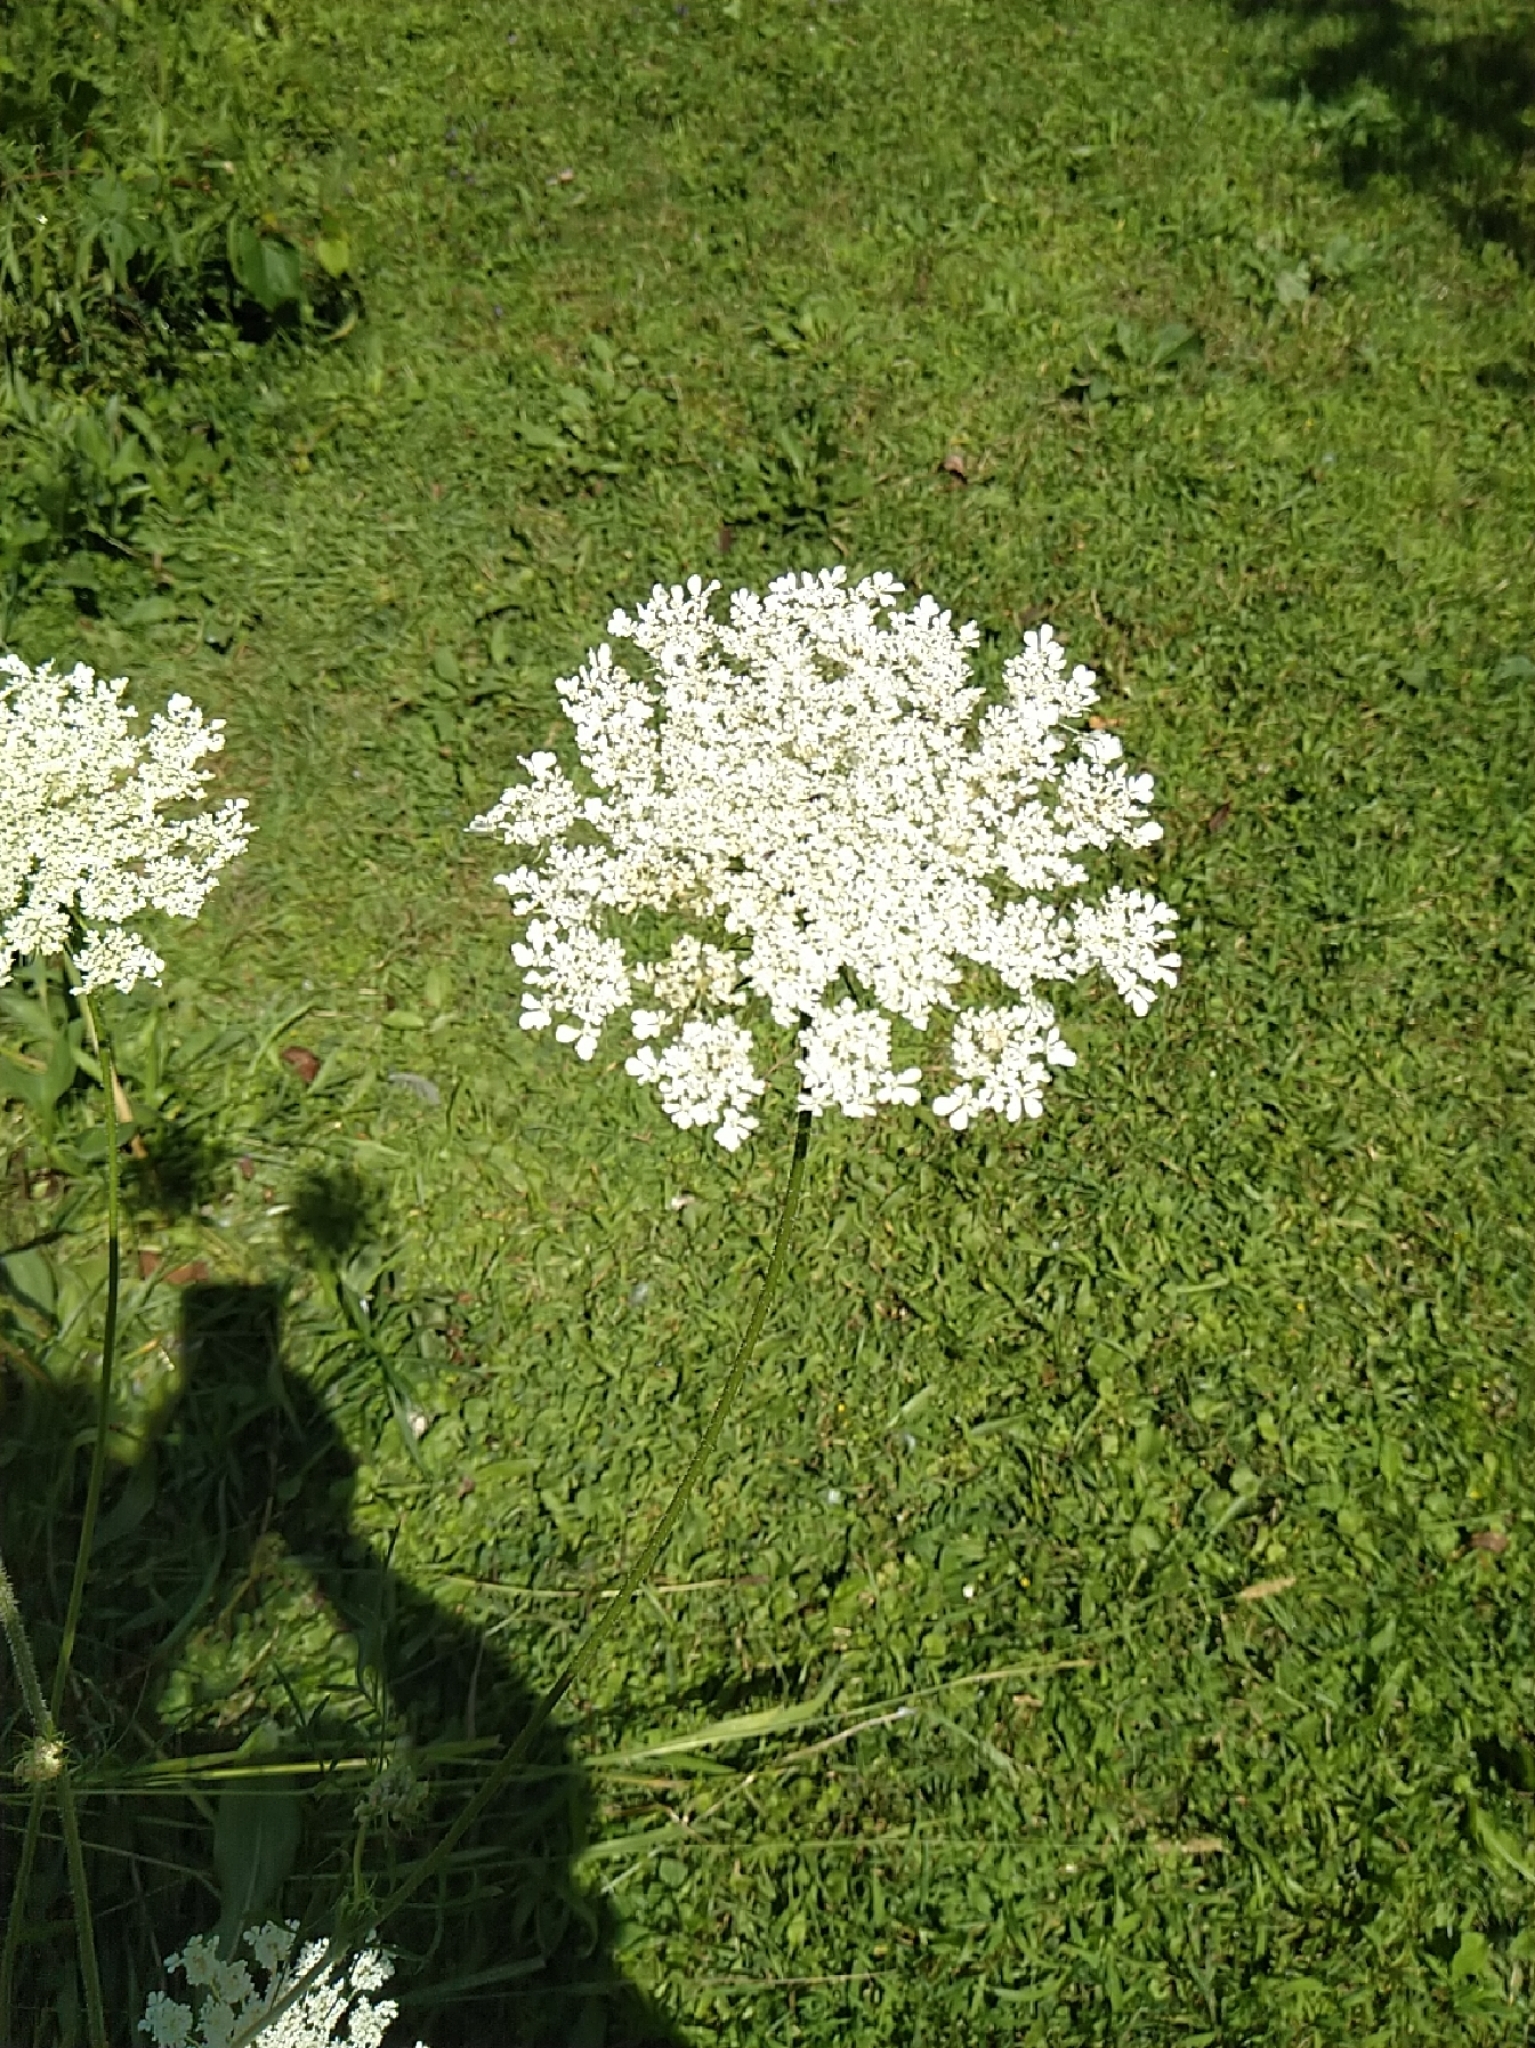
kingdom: Plantae
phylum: Tracheophyta
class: Magnoliopsida
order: Apiales
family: Apiaceae
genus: Daucus
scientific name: Daucus carota
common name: Wild carrot
